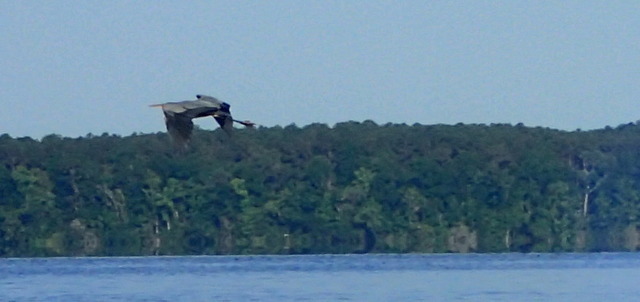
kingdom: Animalia
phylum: Chordata
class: Aves
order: Pelecaniformes
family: Ardeidae
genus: Ardea
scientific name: Ardea herodias
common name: Great blue heron
